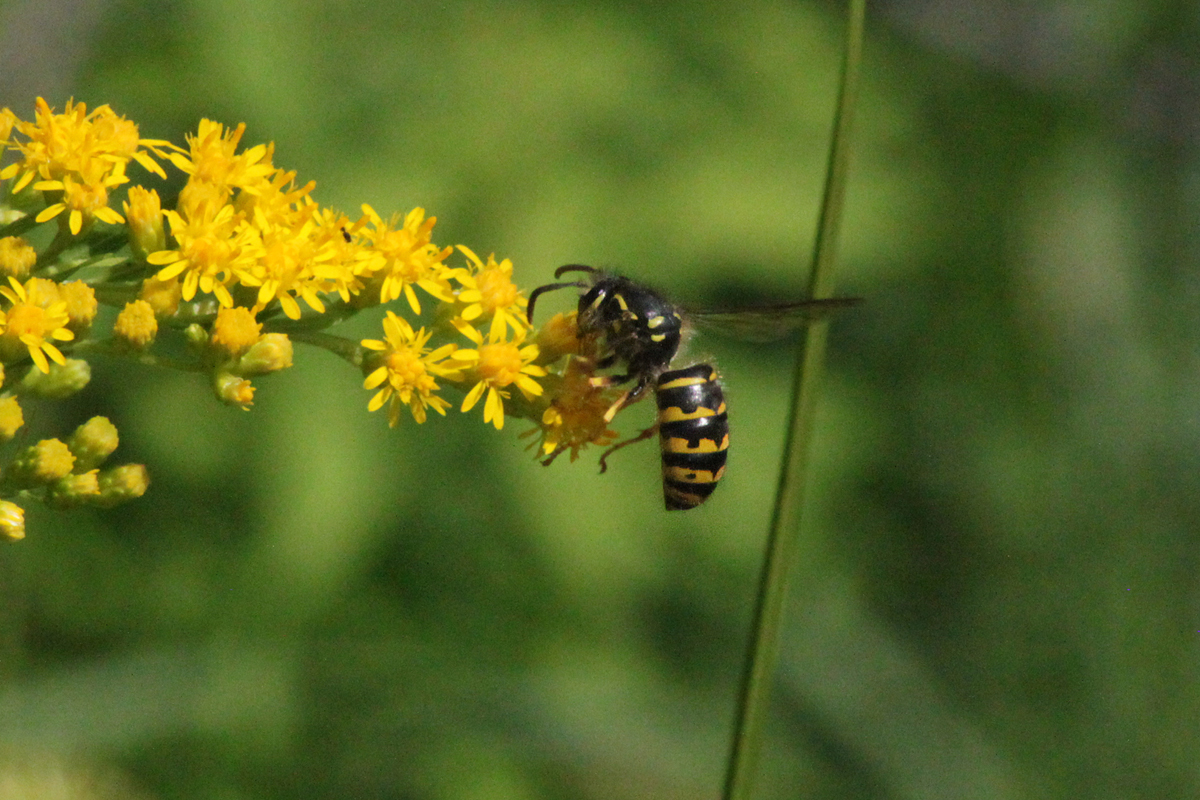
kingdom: Animalia
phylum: Arthropoda
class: Insecta
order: Hymenoptera
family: Vespidae
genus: Dolichovespula
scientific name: Dolichovespula arenaria
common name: Aerial yellowjacket
